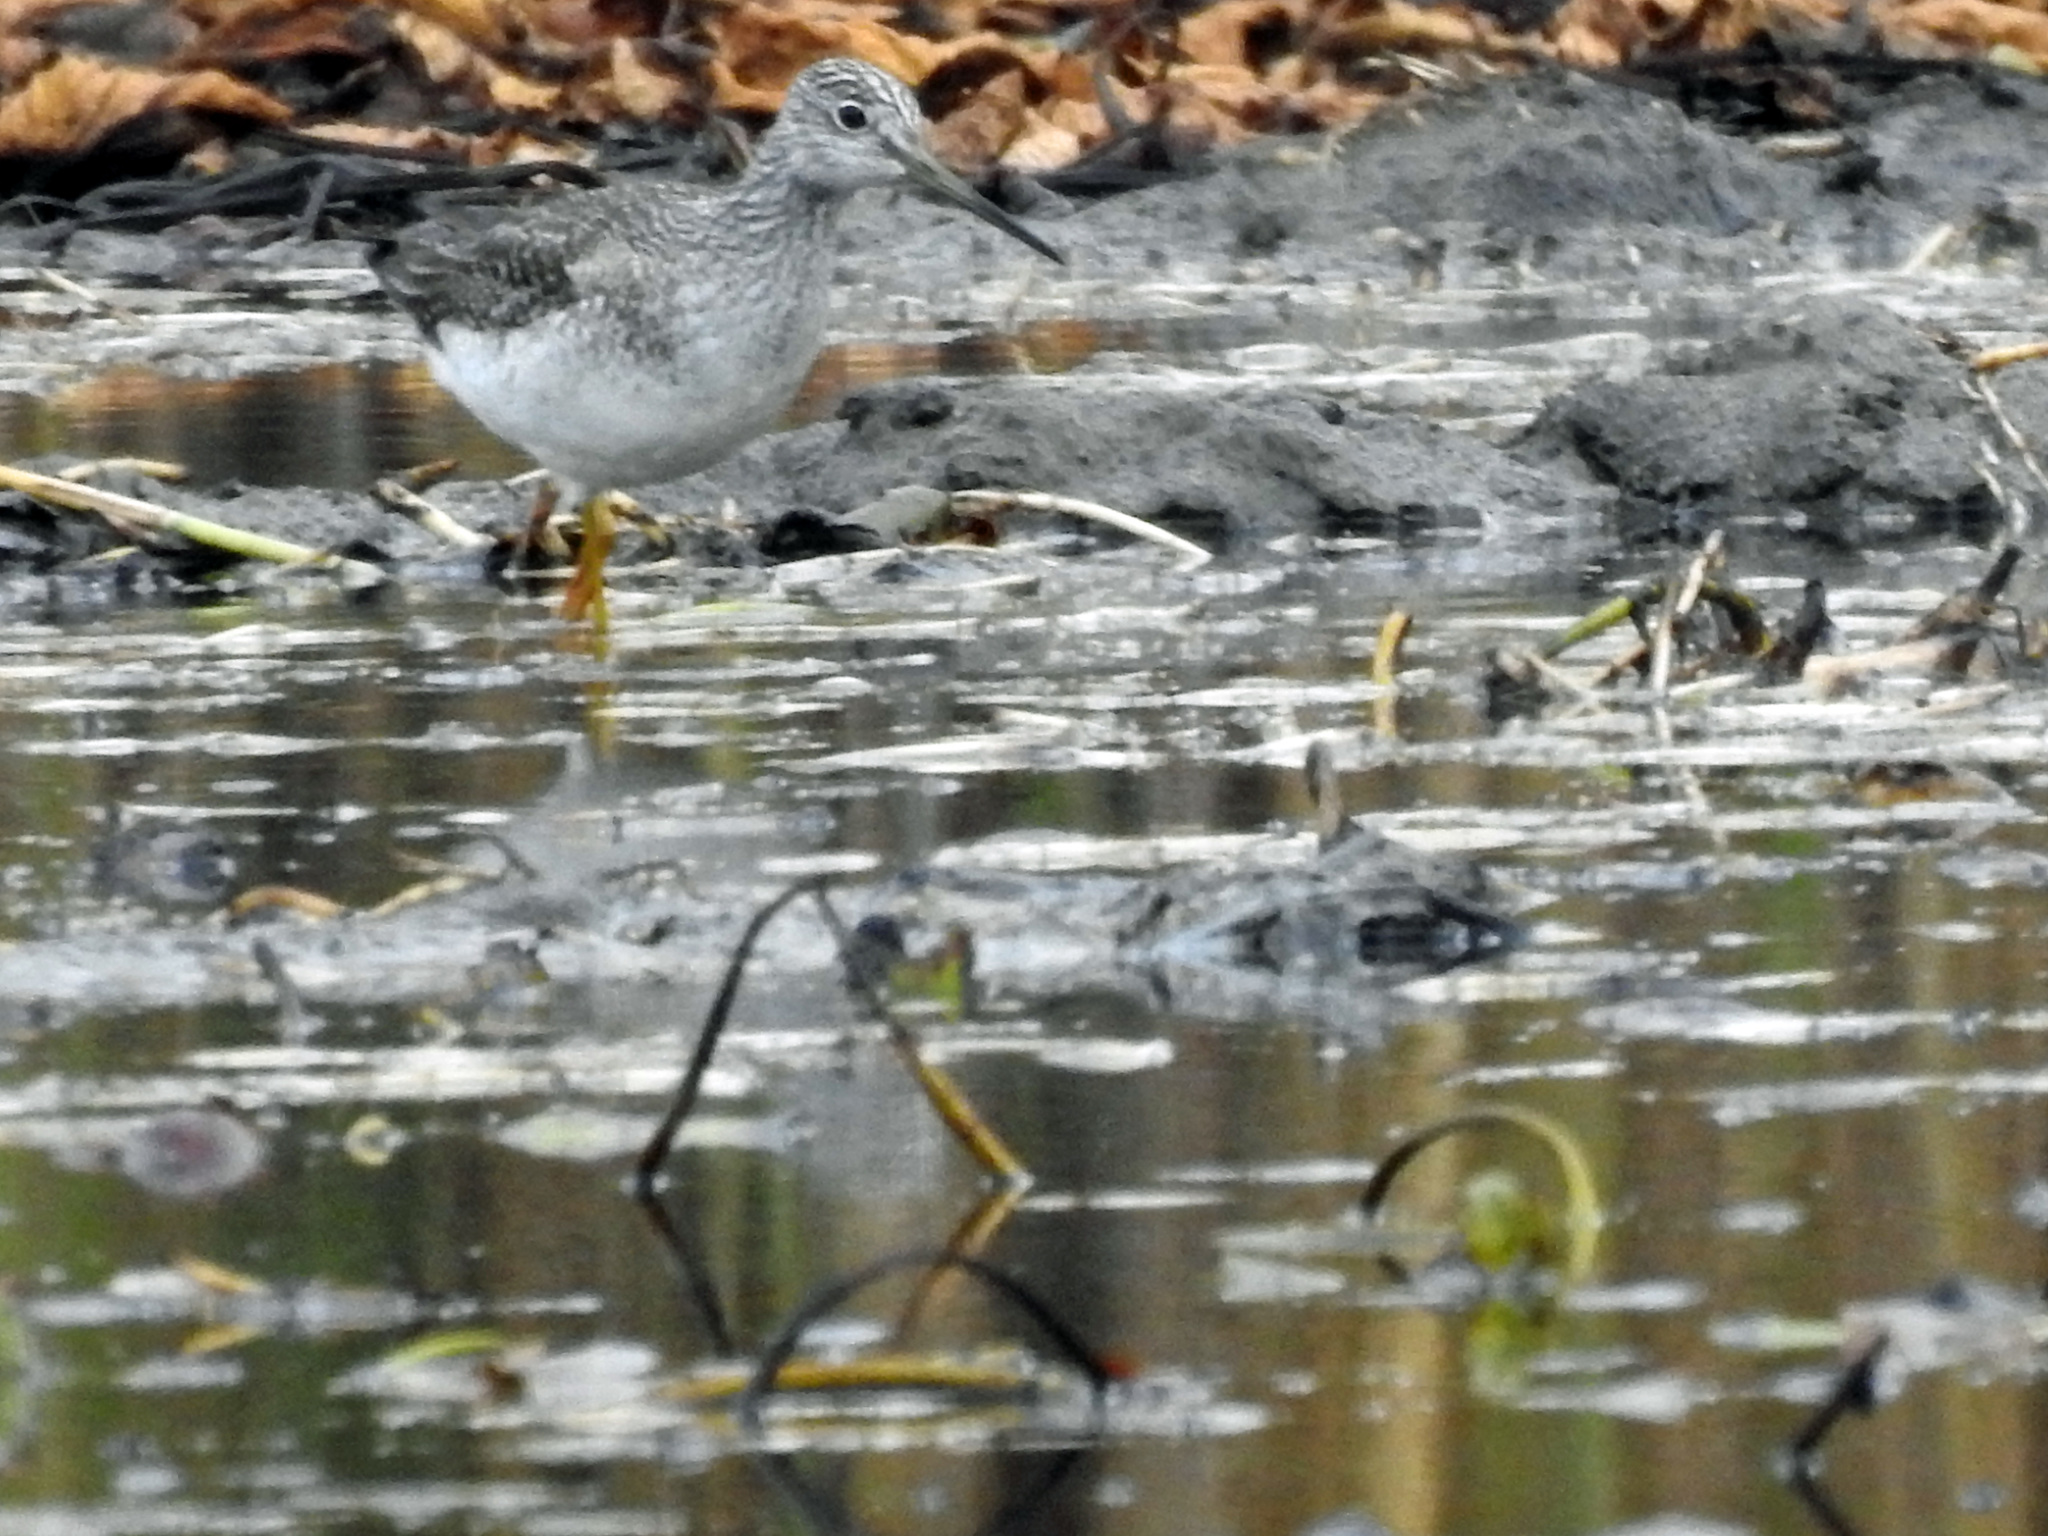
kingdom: Animalia
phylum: Chordata
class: Aves
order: Charadriiformes
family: Scolopacidae
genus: Tringa
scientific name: Tringa melanoleuca
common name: Greater yellowlegs
